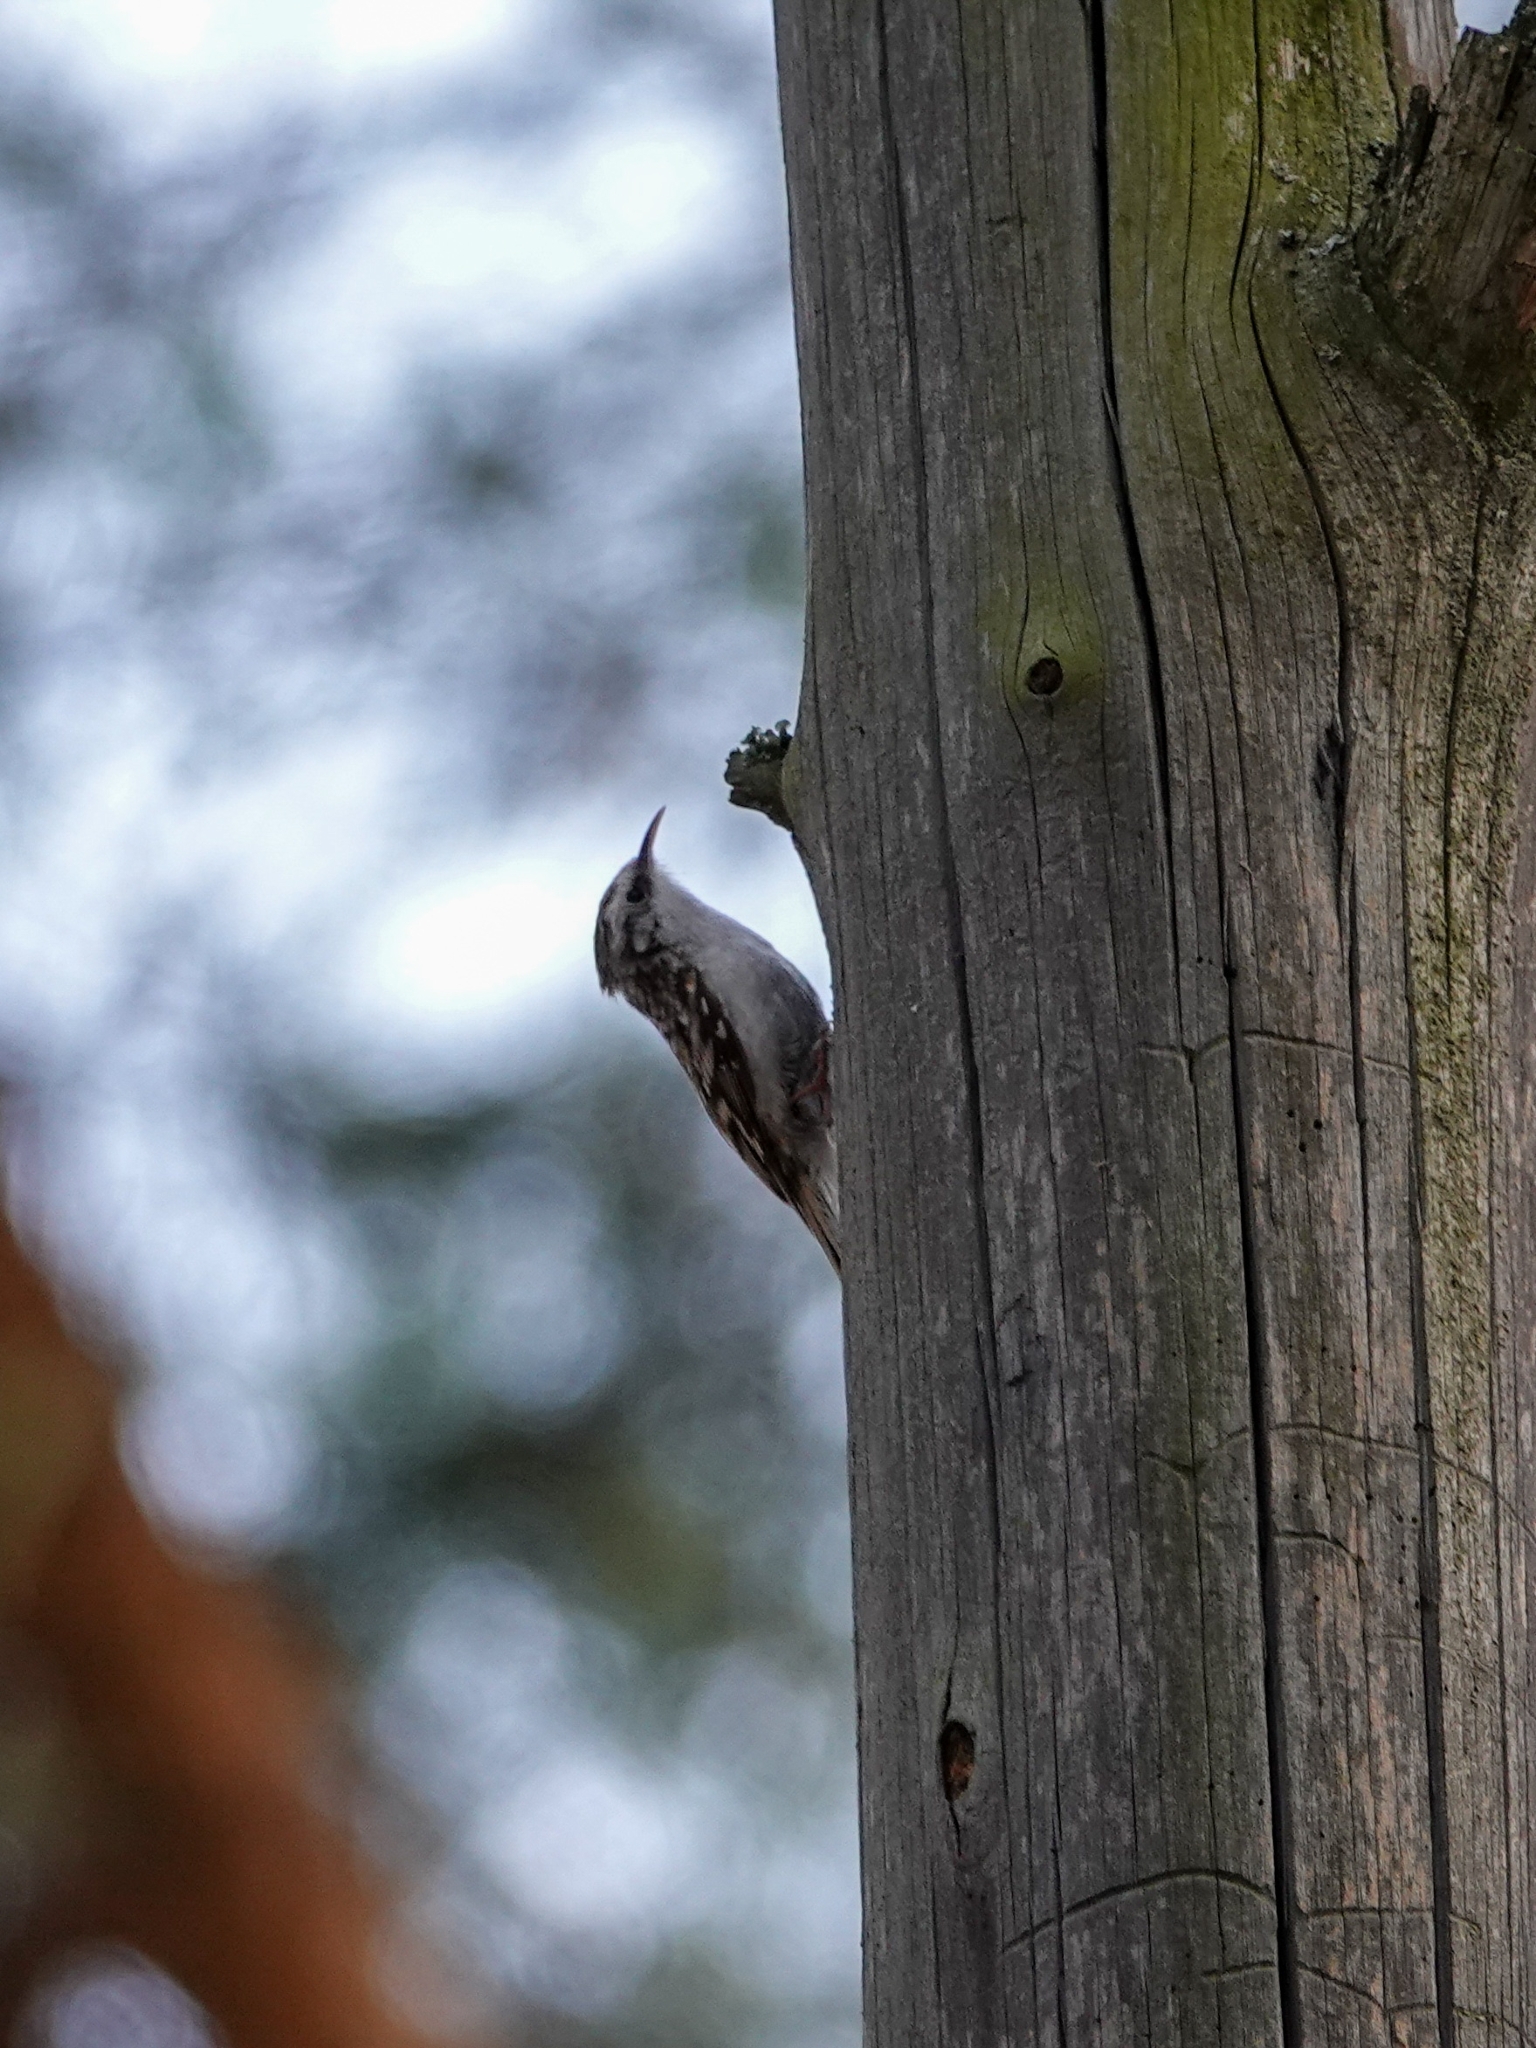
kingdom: Animalia
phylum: Chordata
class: Aves
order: Passeriformes
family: Certhiidae
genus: Certhia
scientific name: Certhia familiaris
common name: Eurasian treecreeper
